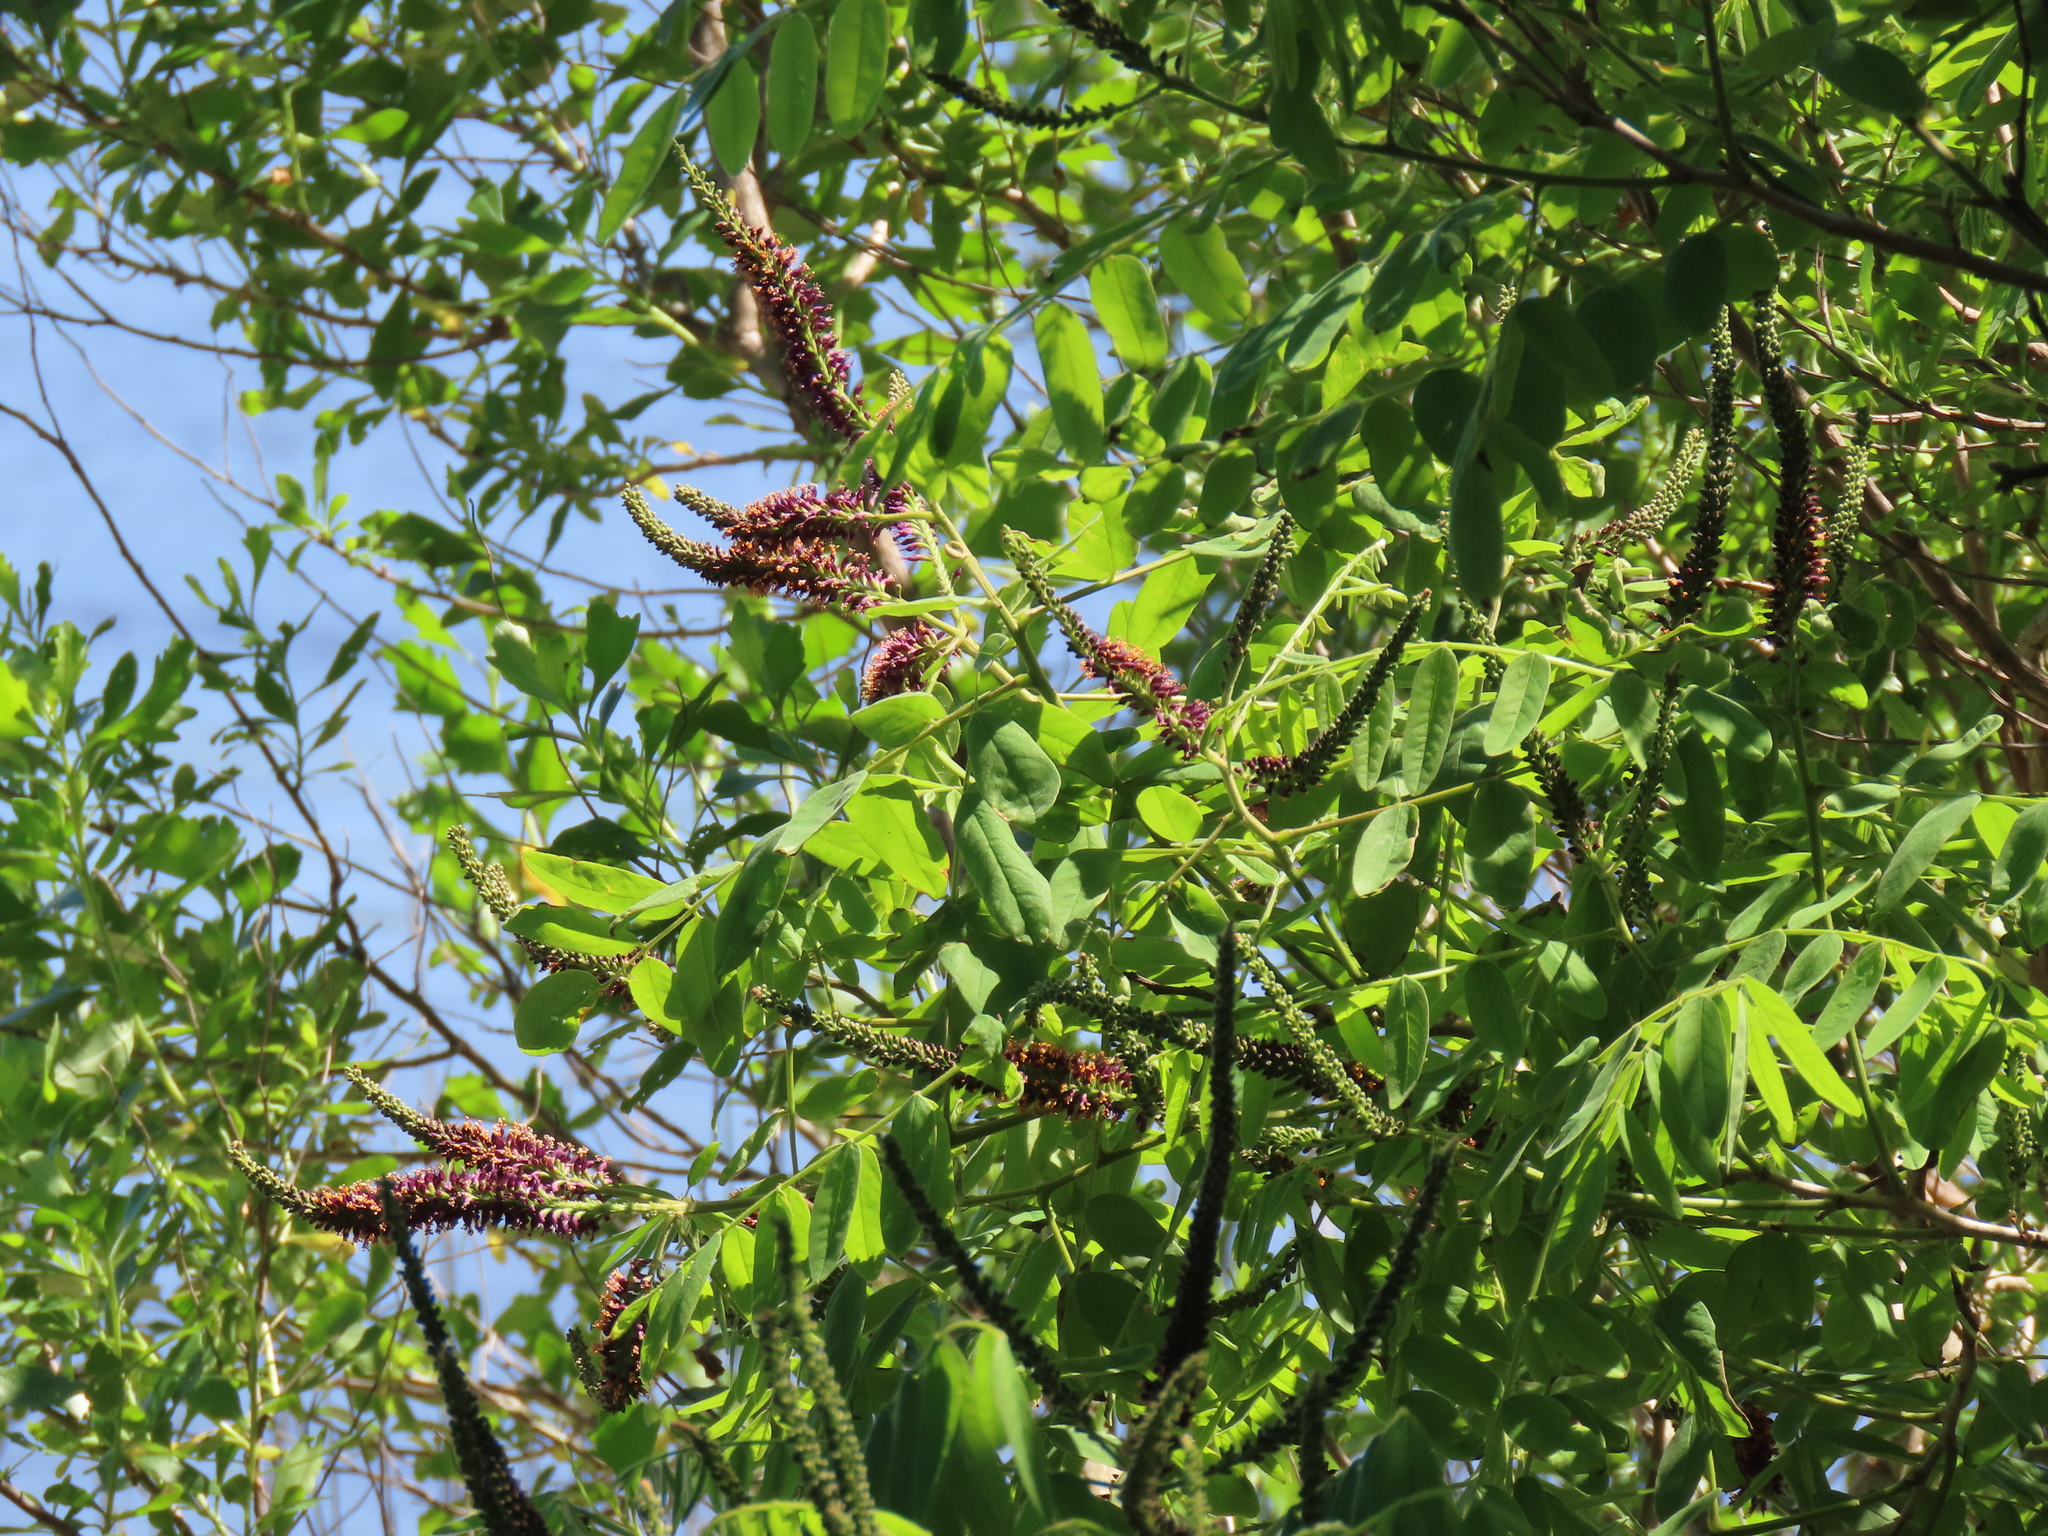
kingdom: Plantae
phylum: Tracheophyta
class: Magnoliopsida
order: Fabales
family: Fabaceae
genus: Amorpha
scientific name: Amorpha fruticosa
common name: False indigo
